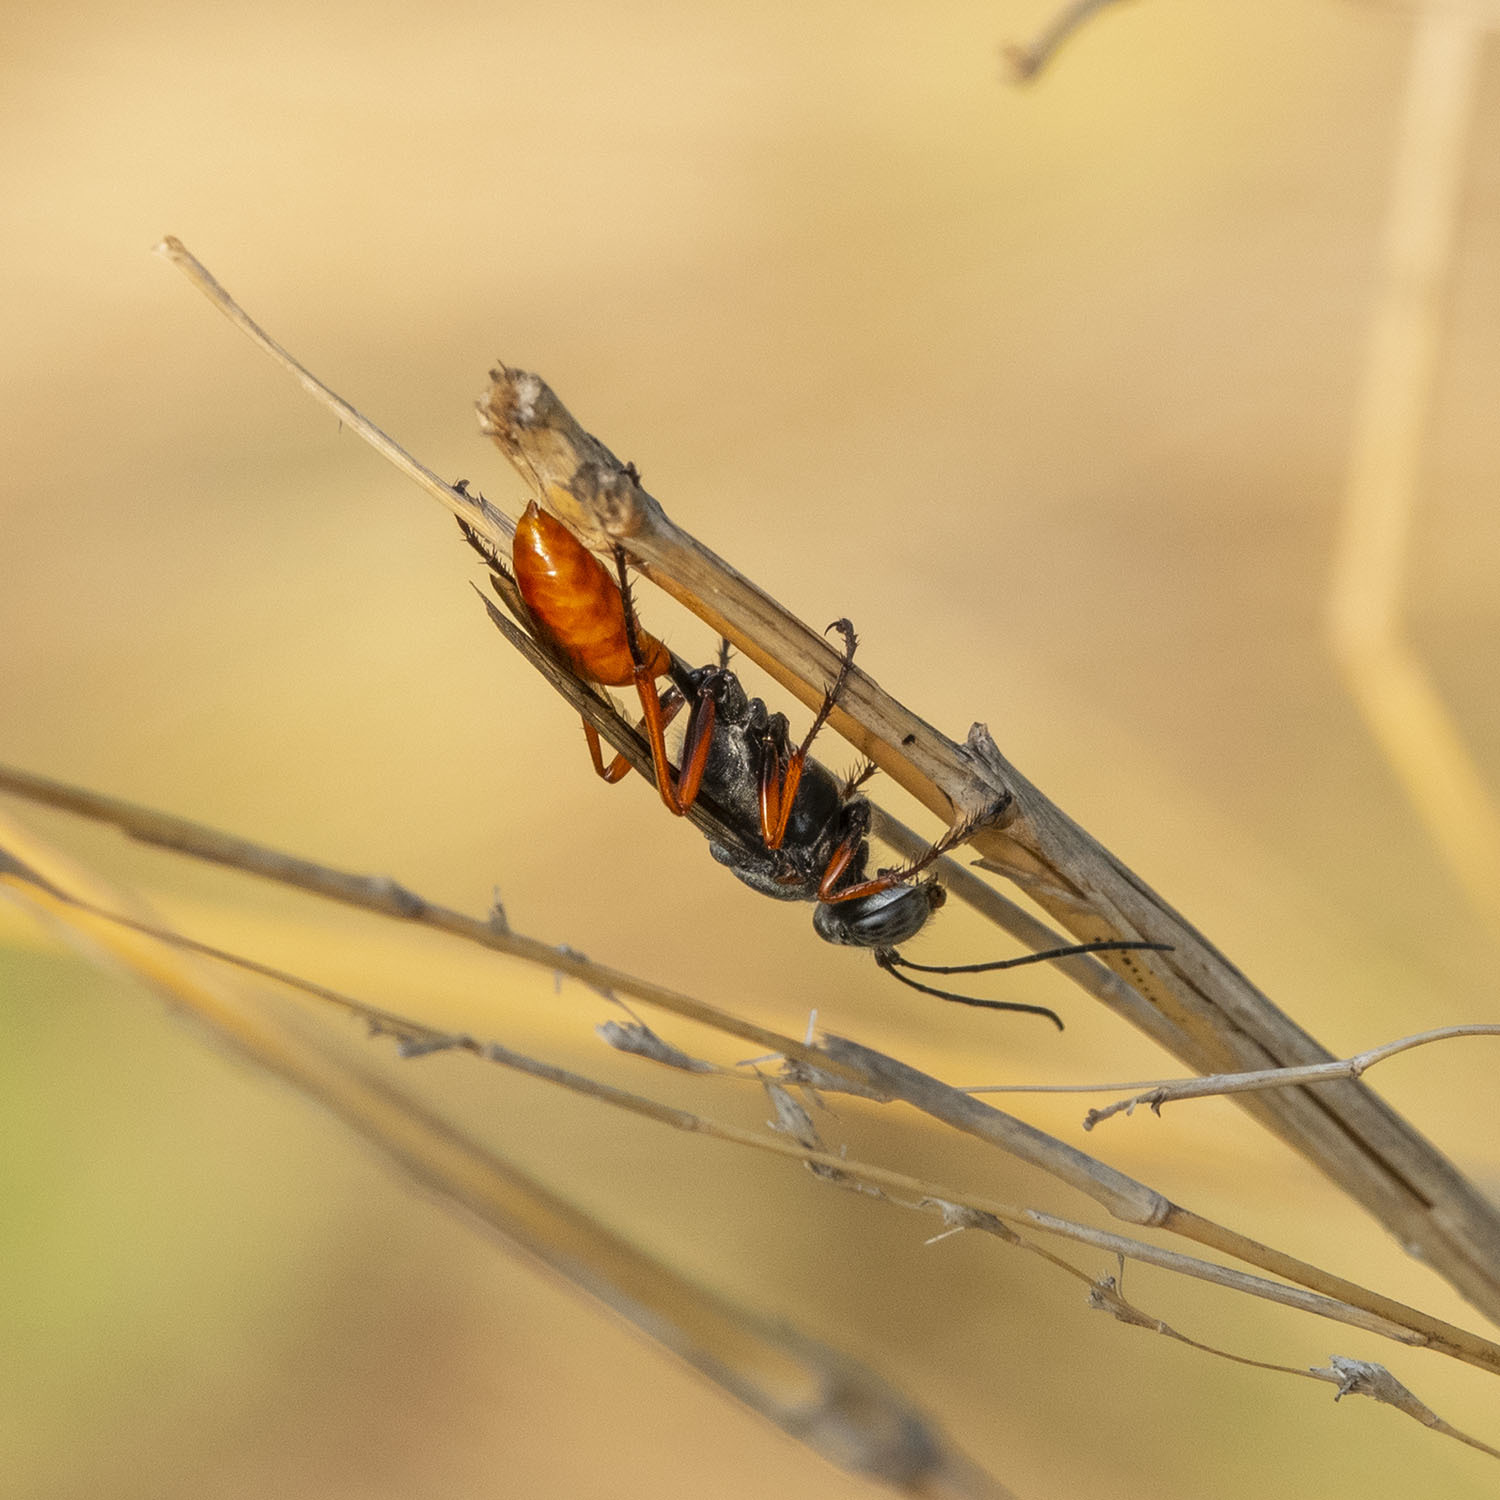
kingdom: Animalia
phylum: Arthropoda
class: Insecta
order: Hymenoptera
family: Sphecidae
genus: Sphex
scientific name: Sphex pruinosus
